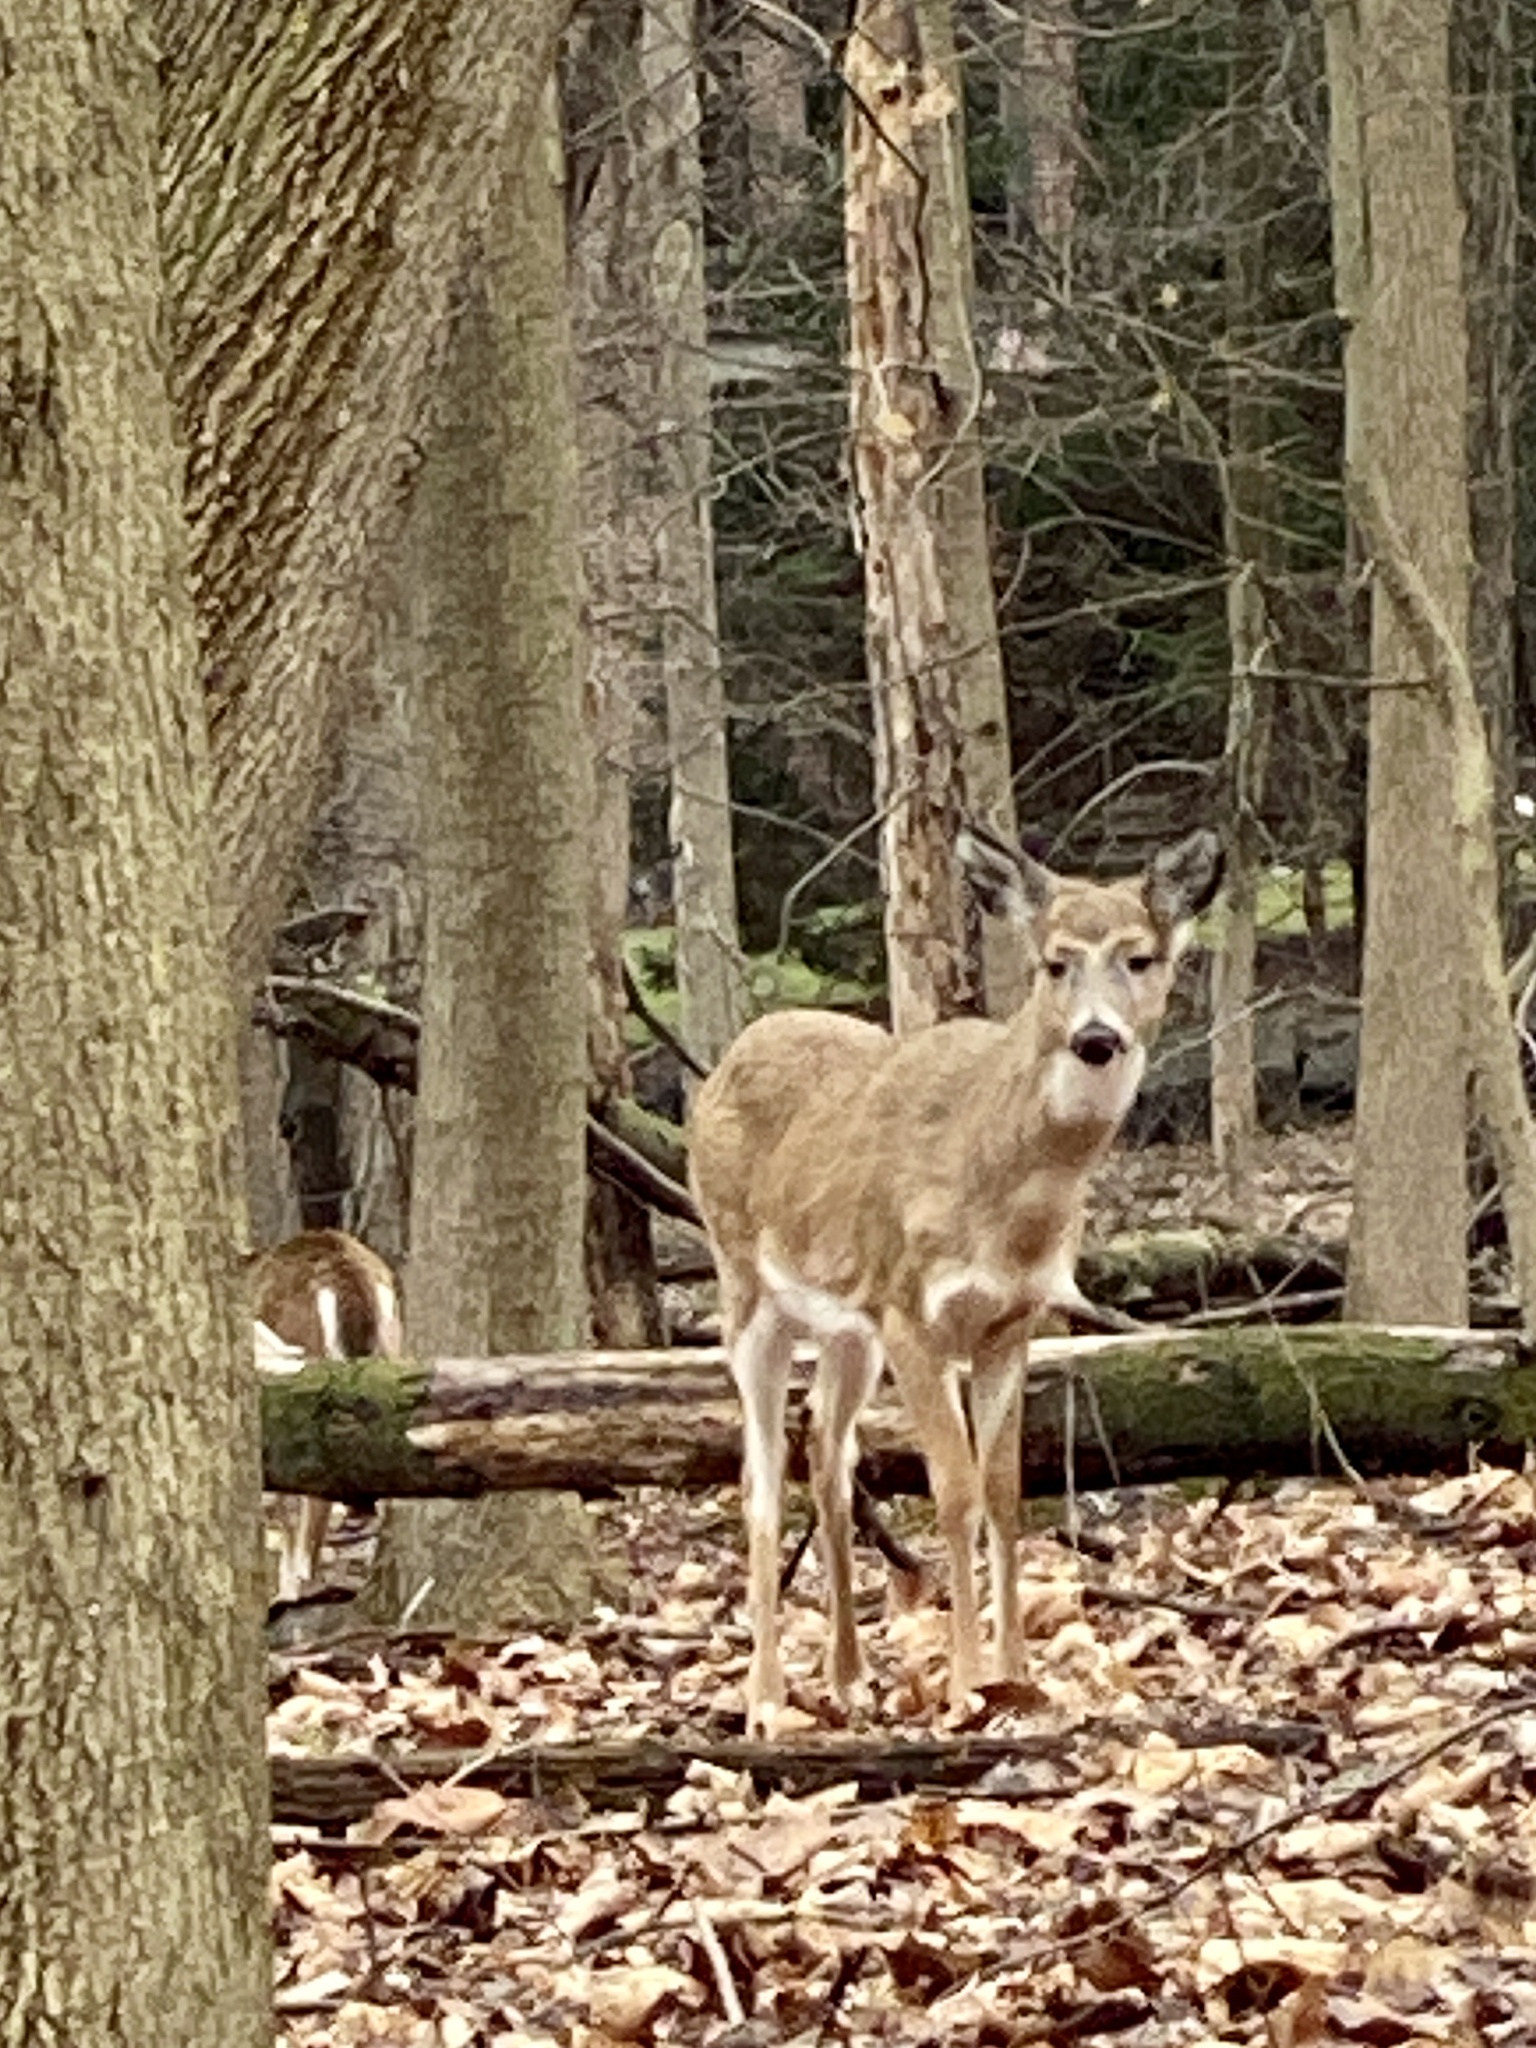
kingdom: Animalia
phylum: Chordata
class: Mammalia
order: Artiodactyla
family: Cervidae
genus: Odocoileus
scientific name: Odocoileus virginianus
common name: White-tailed deer
